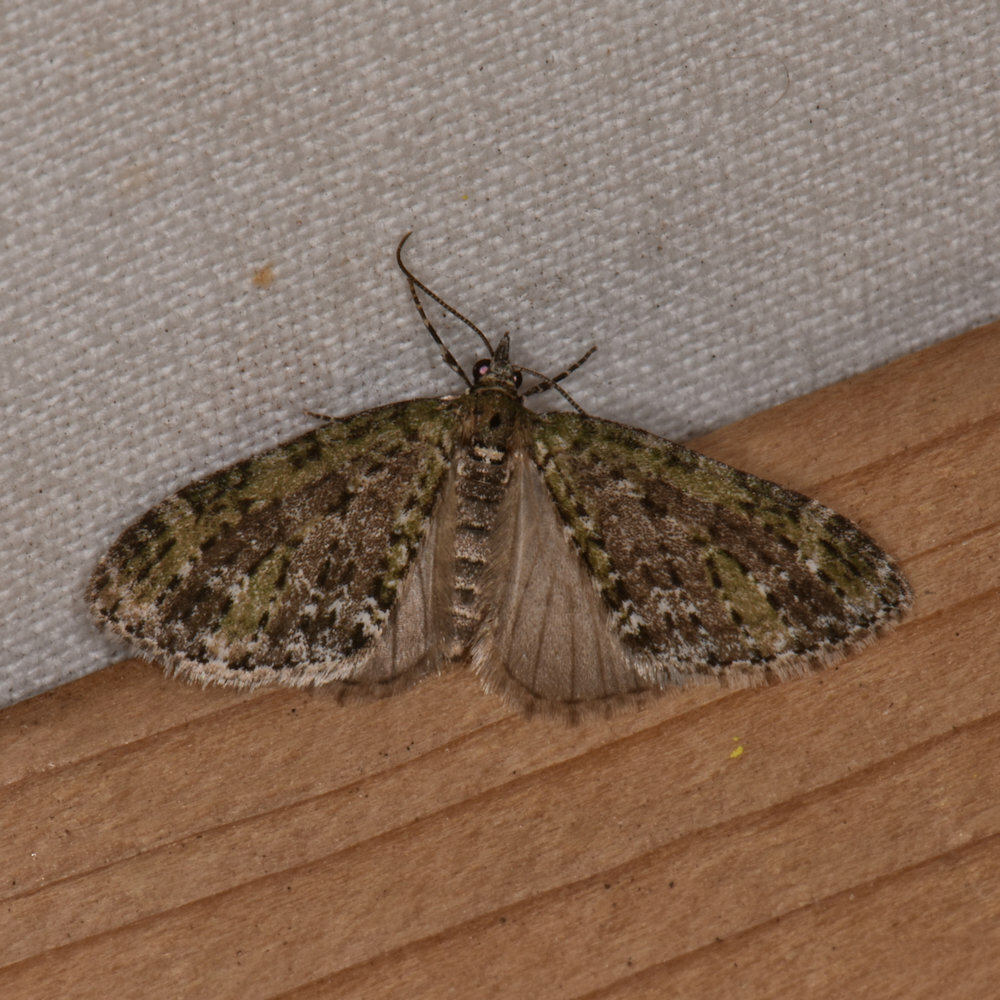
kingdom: Animalia
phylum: Arthropoda
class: Insecta
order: Lepidoptera
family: Geometridae
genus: Acasis
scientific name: Acasis viridata
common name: Olive-and-black carpet moth
